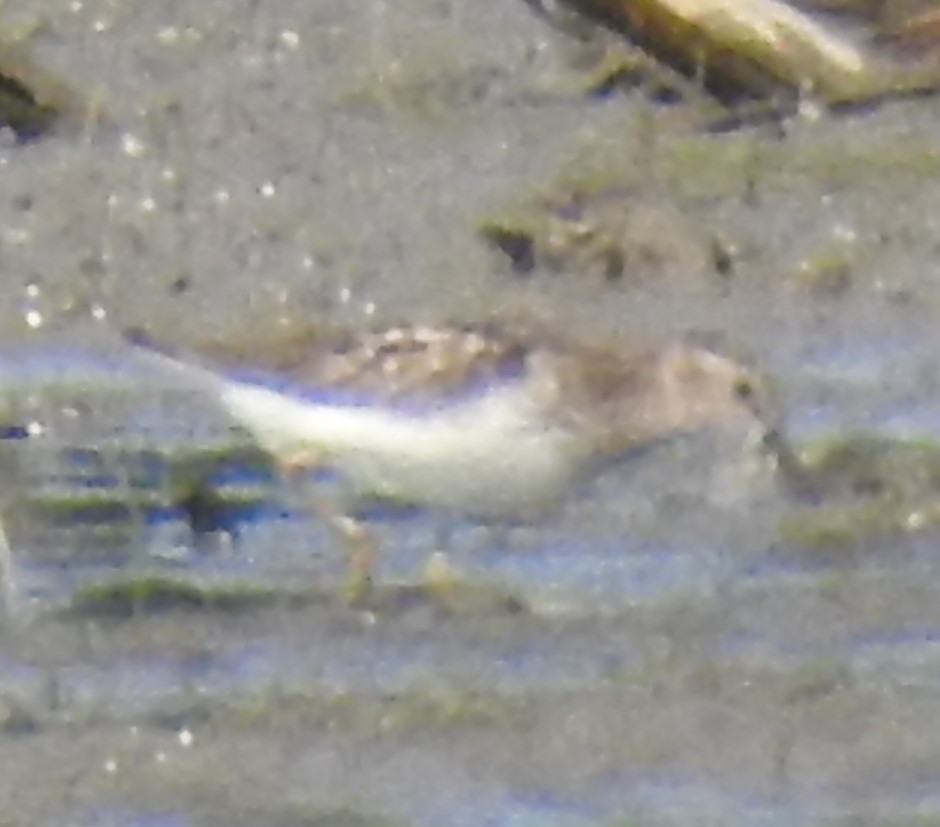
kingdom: Animalia
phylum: Chordata
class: Aves
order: Charadriiformes
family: Scolopacidae
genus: Calidris
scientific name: Calidris minutilla
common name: Least sandpiper
